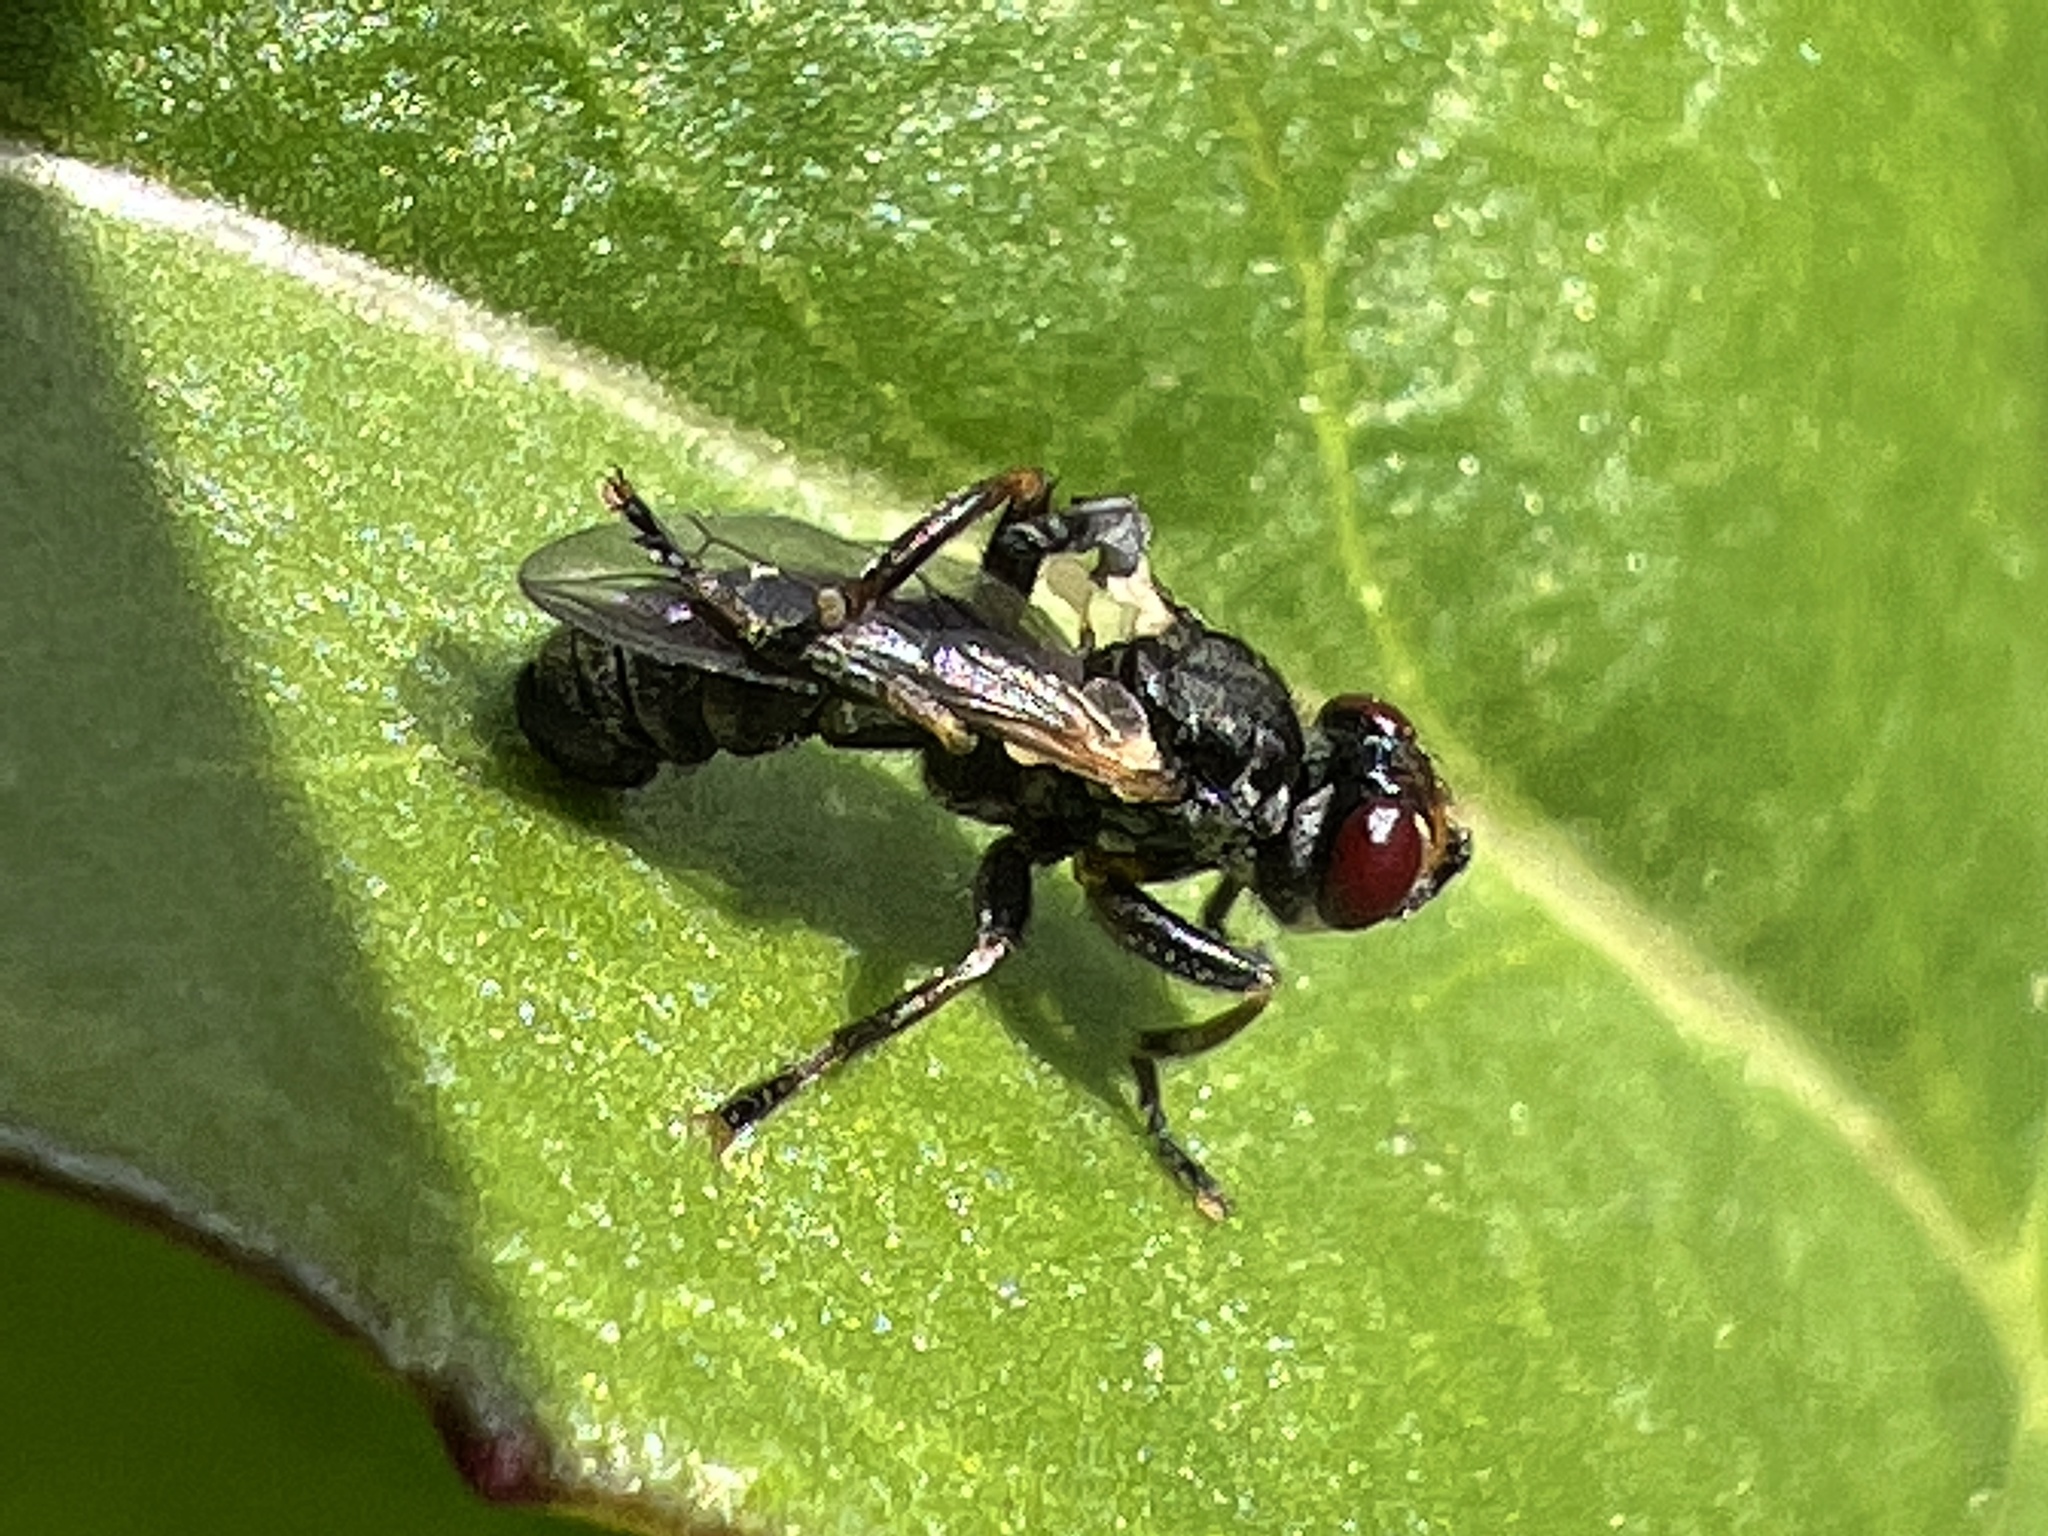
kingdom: Animalia
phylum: Arthropoda
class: Insecta
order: Diptera
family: Conopidae
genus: Thecophora
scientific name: Thecophora propinqua
